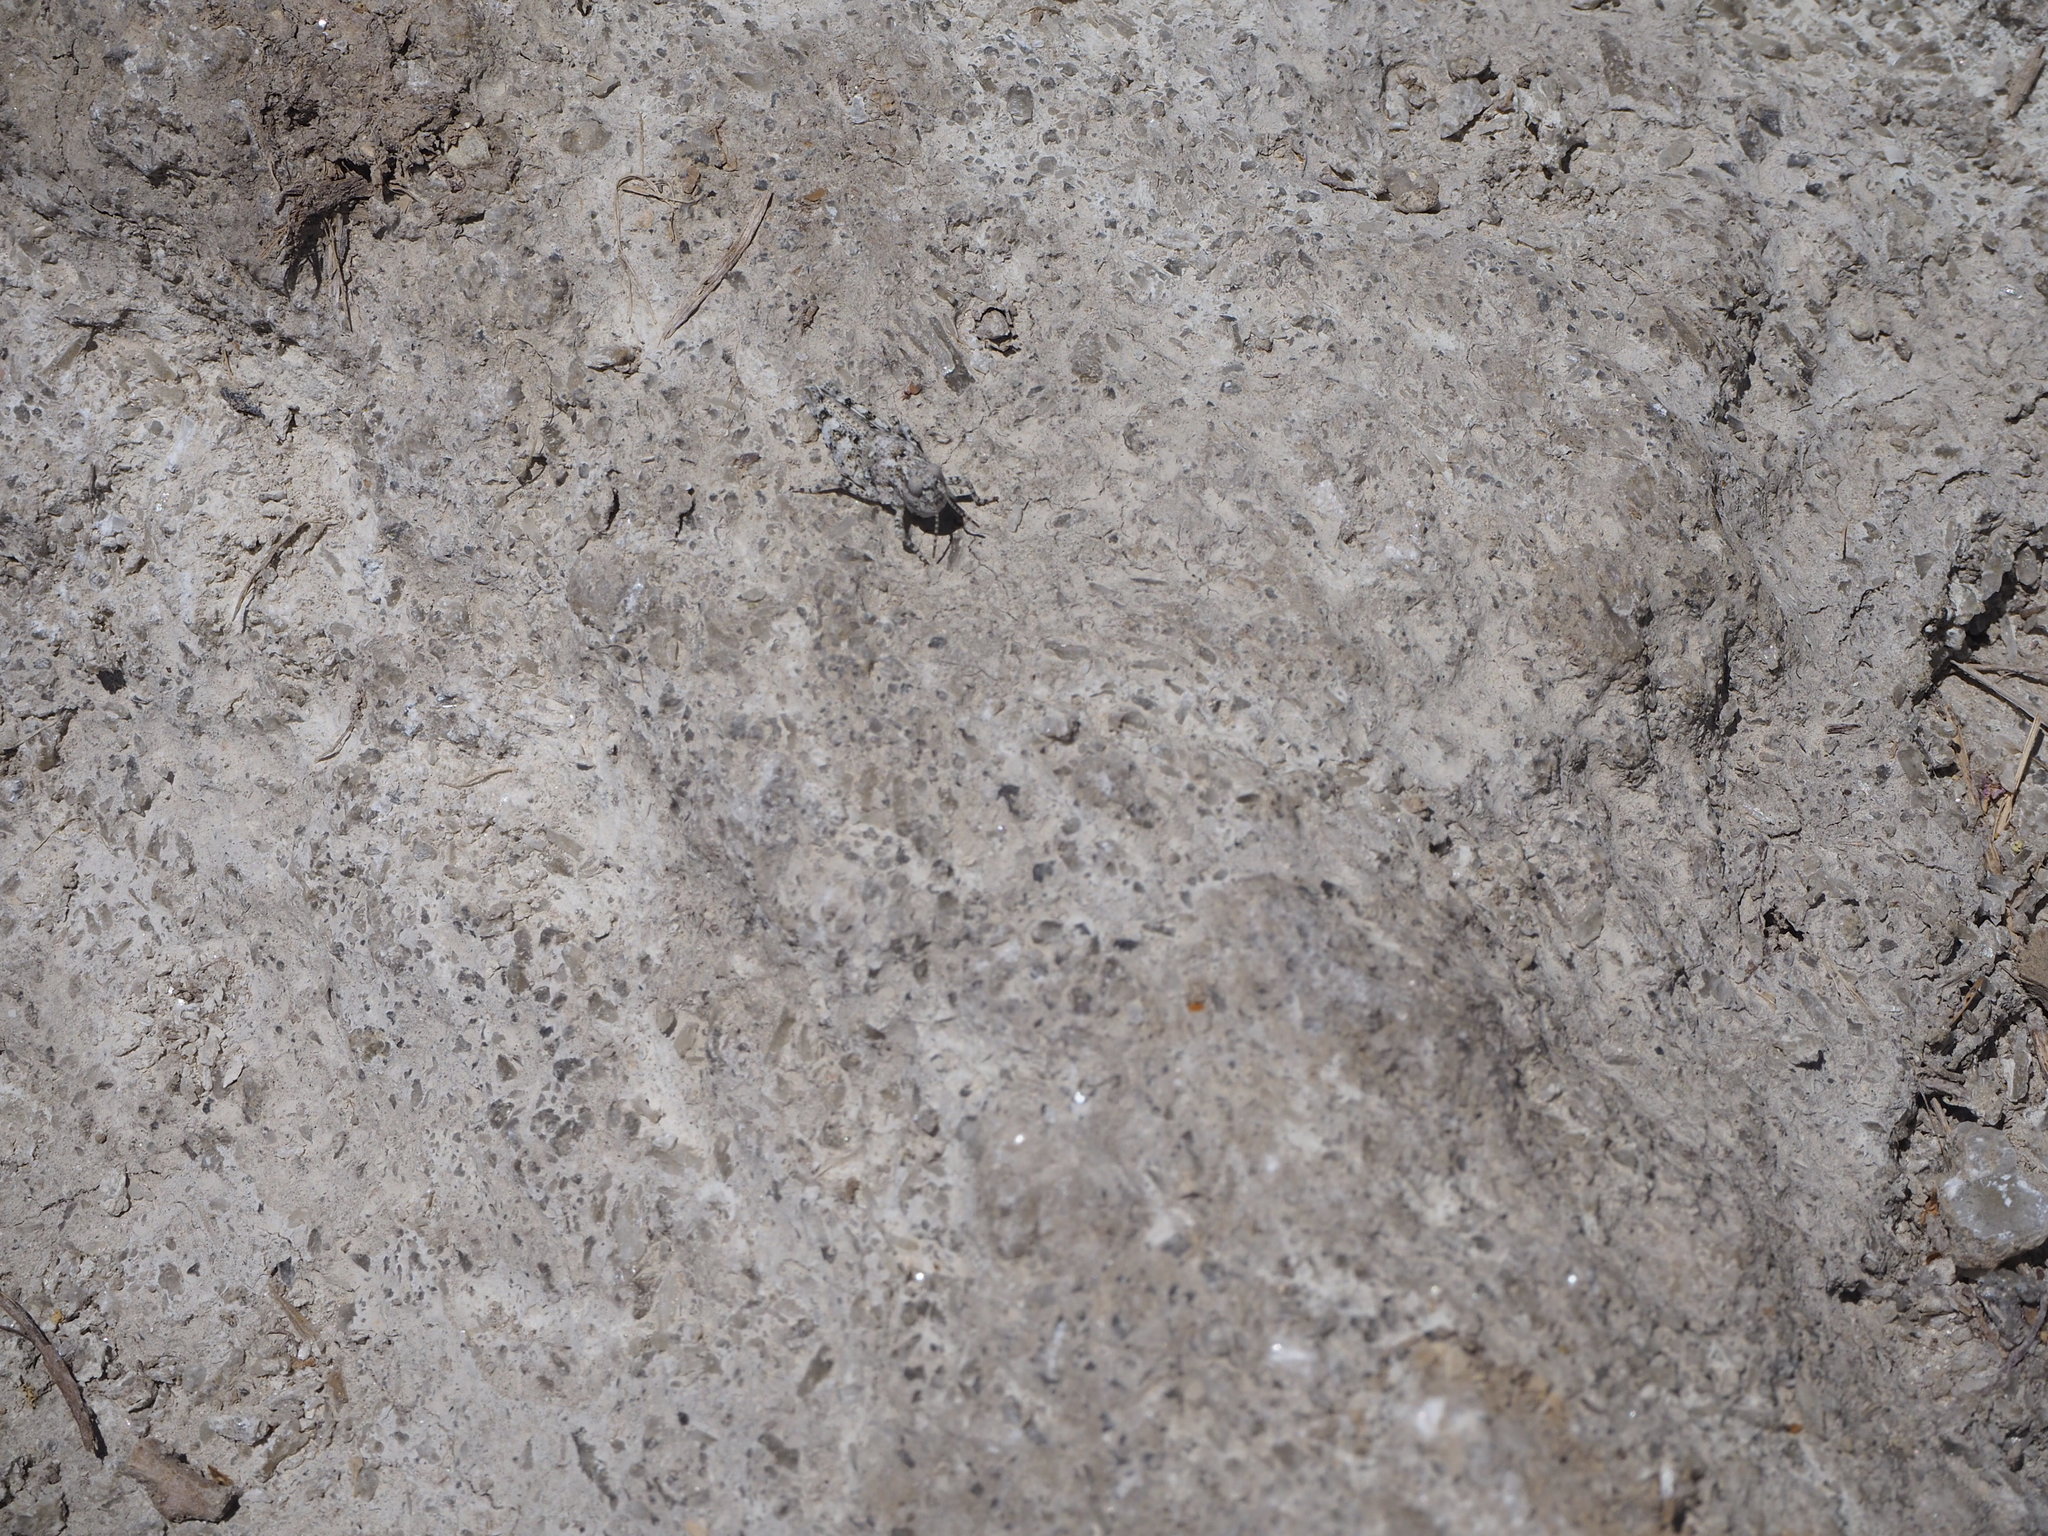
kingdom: Animalia
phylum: Arthropoda
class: Insecta
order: Orthoptera
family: Acrididae
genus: Sphingonotus
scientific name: Sphingonotus caerulans
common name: Blue-winged locust
